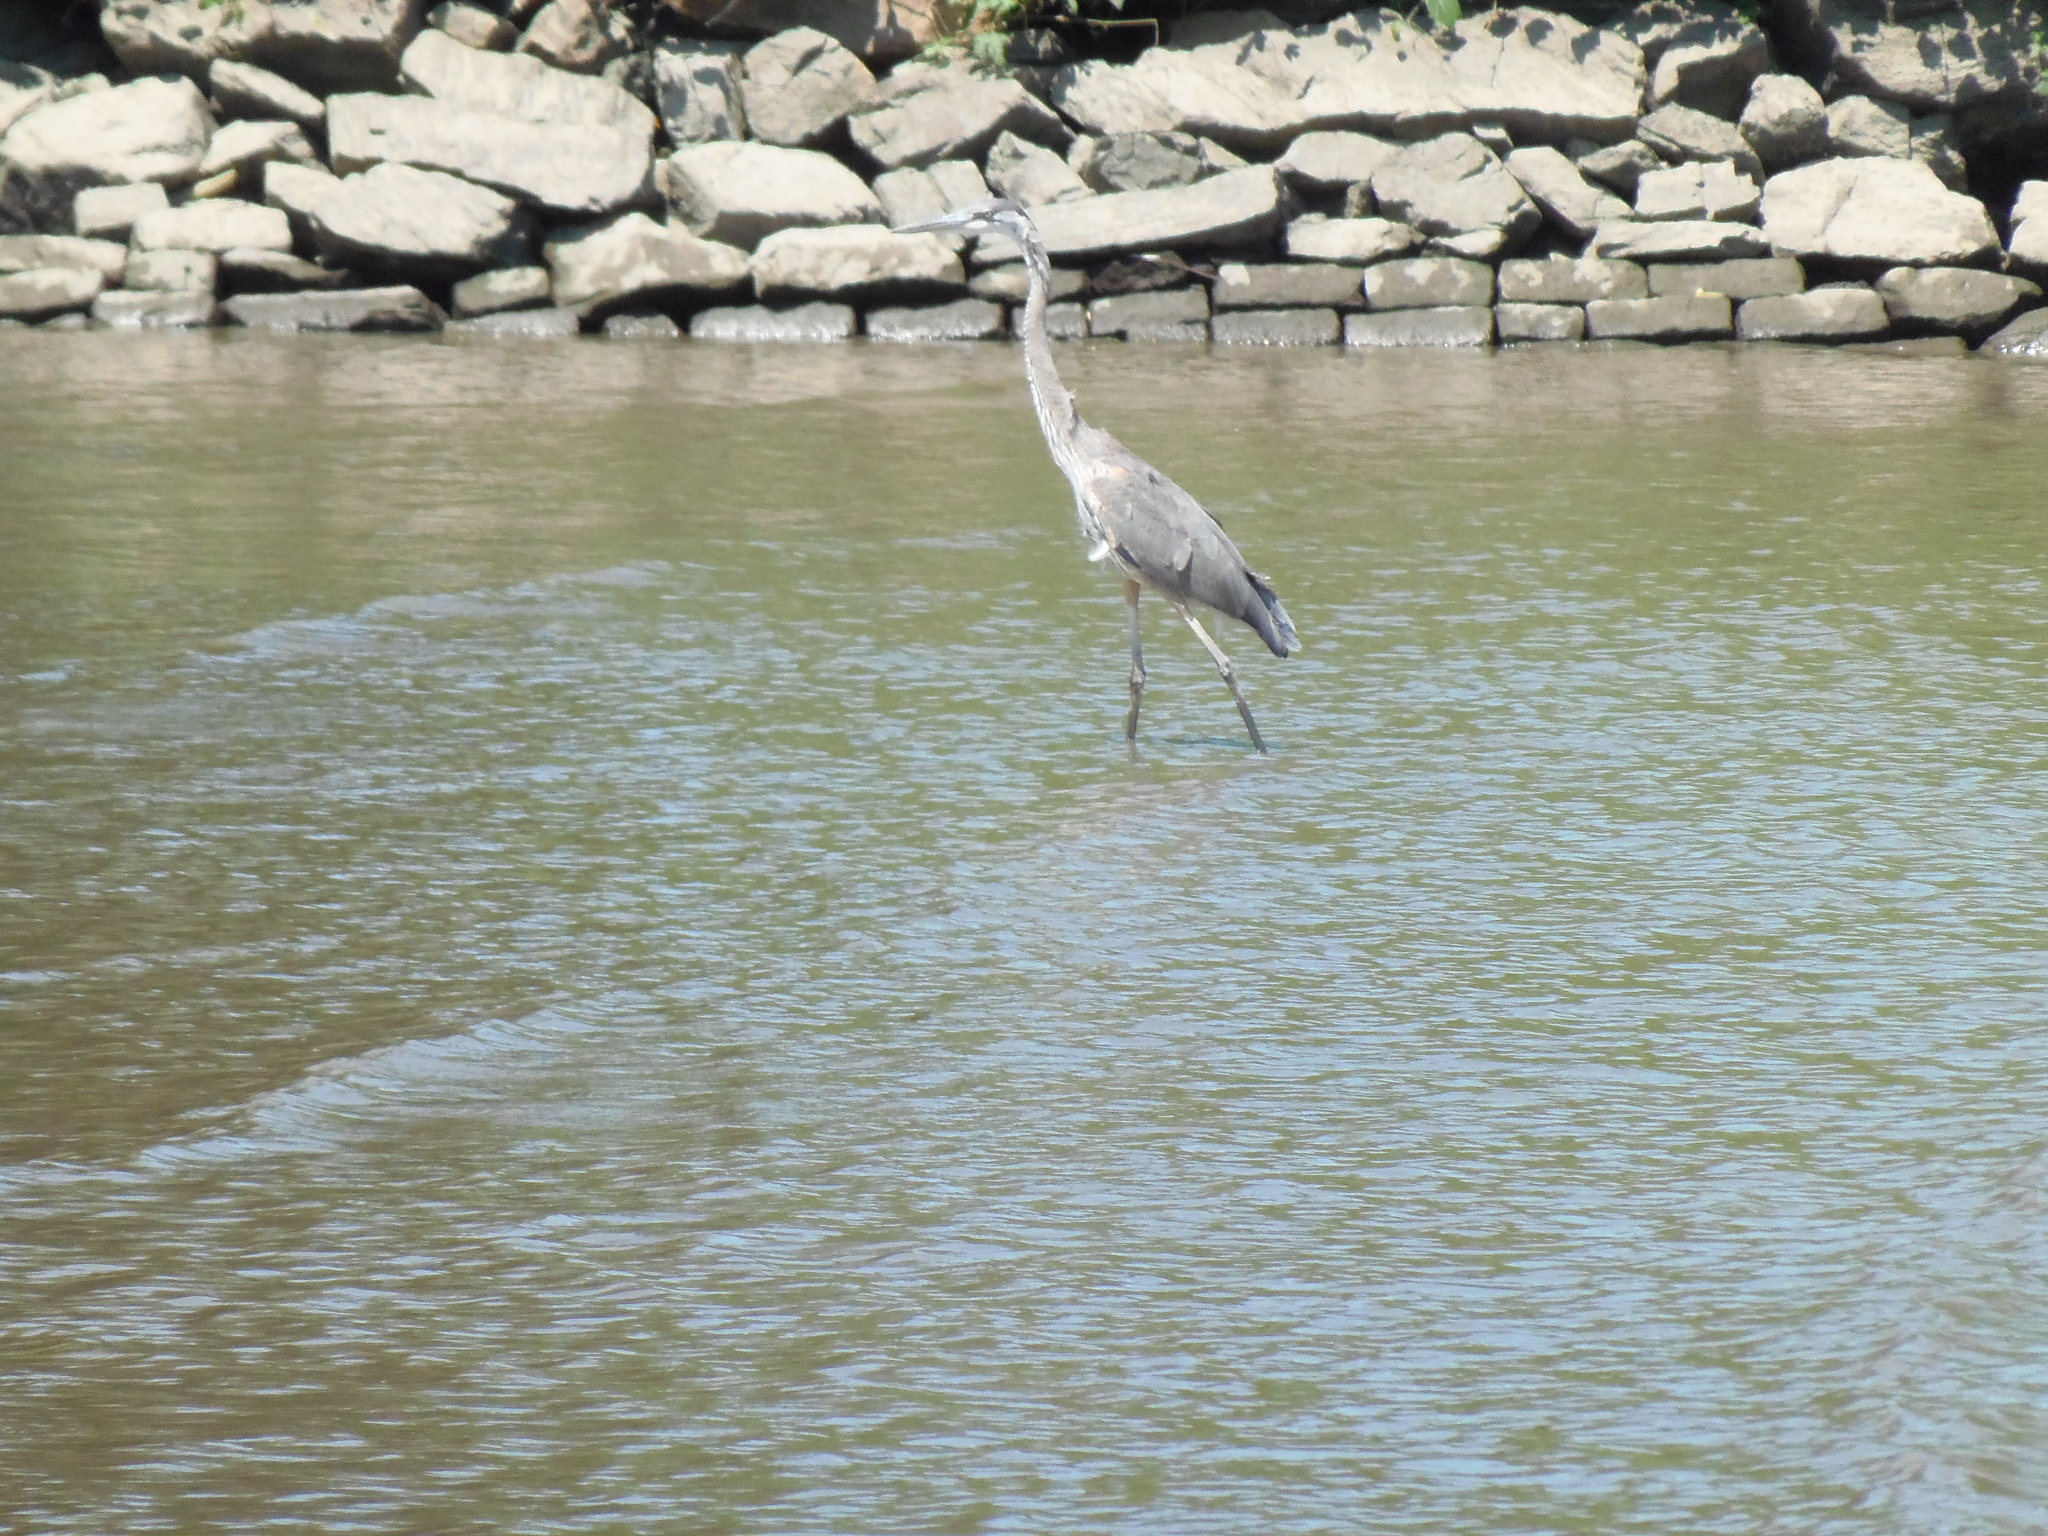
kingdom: Animalia
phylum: Chordata
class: Aves
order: Pelecaniformes
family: Ardeidae
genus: Ardea
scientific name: Ardea herodias
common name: Great blue heron
